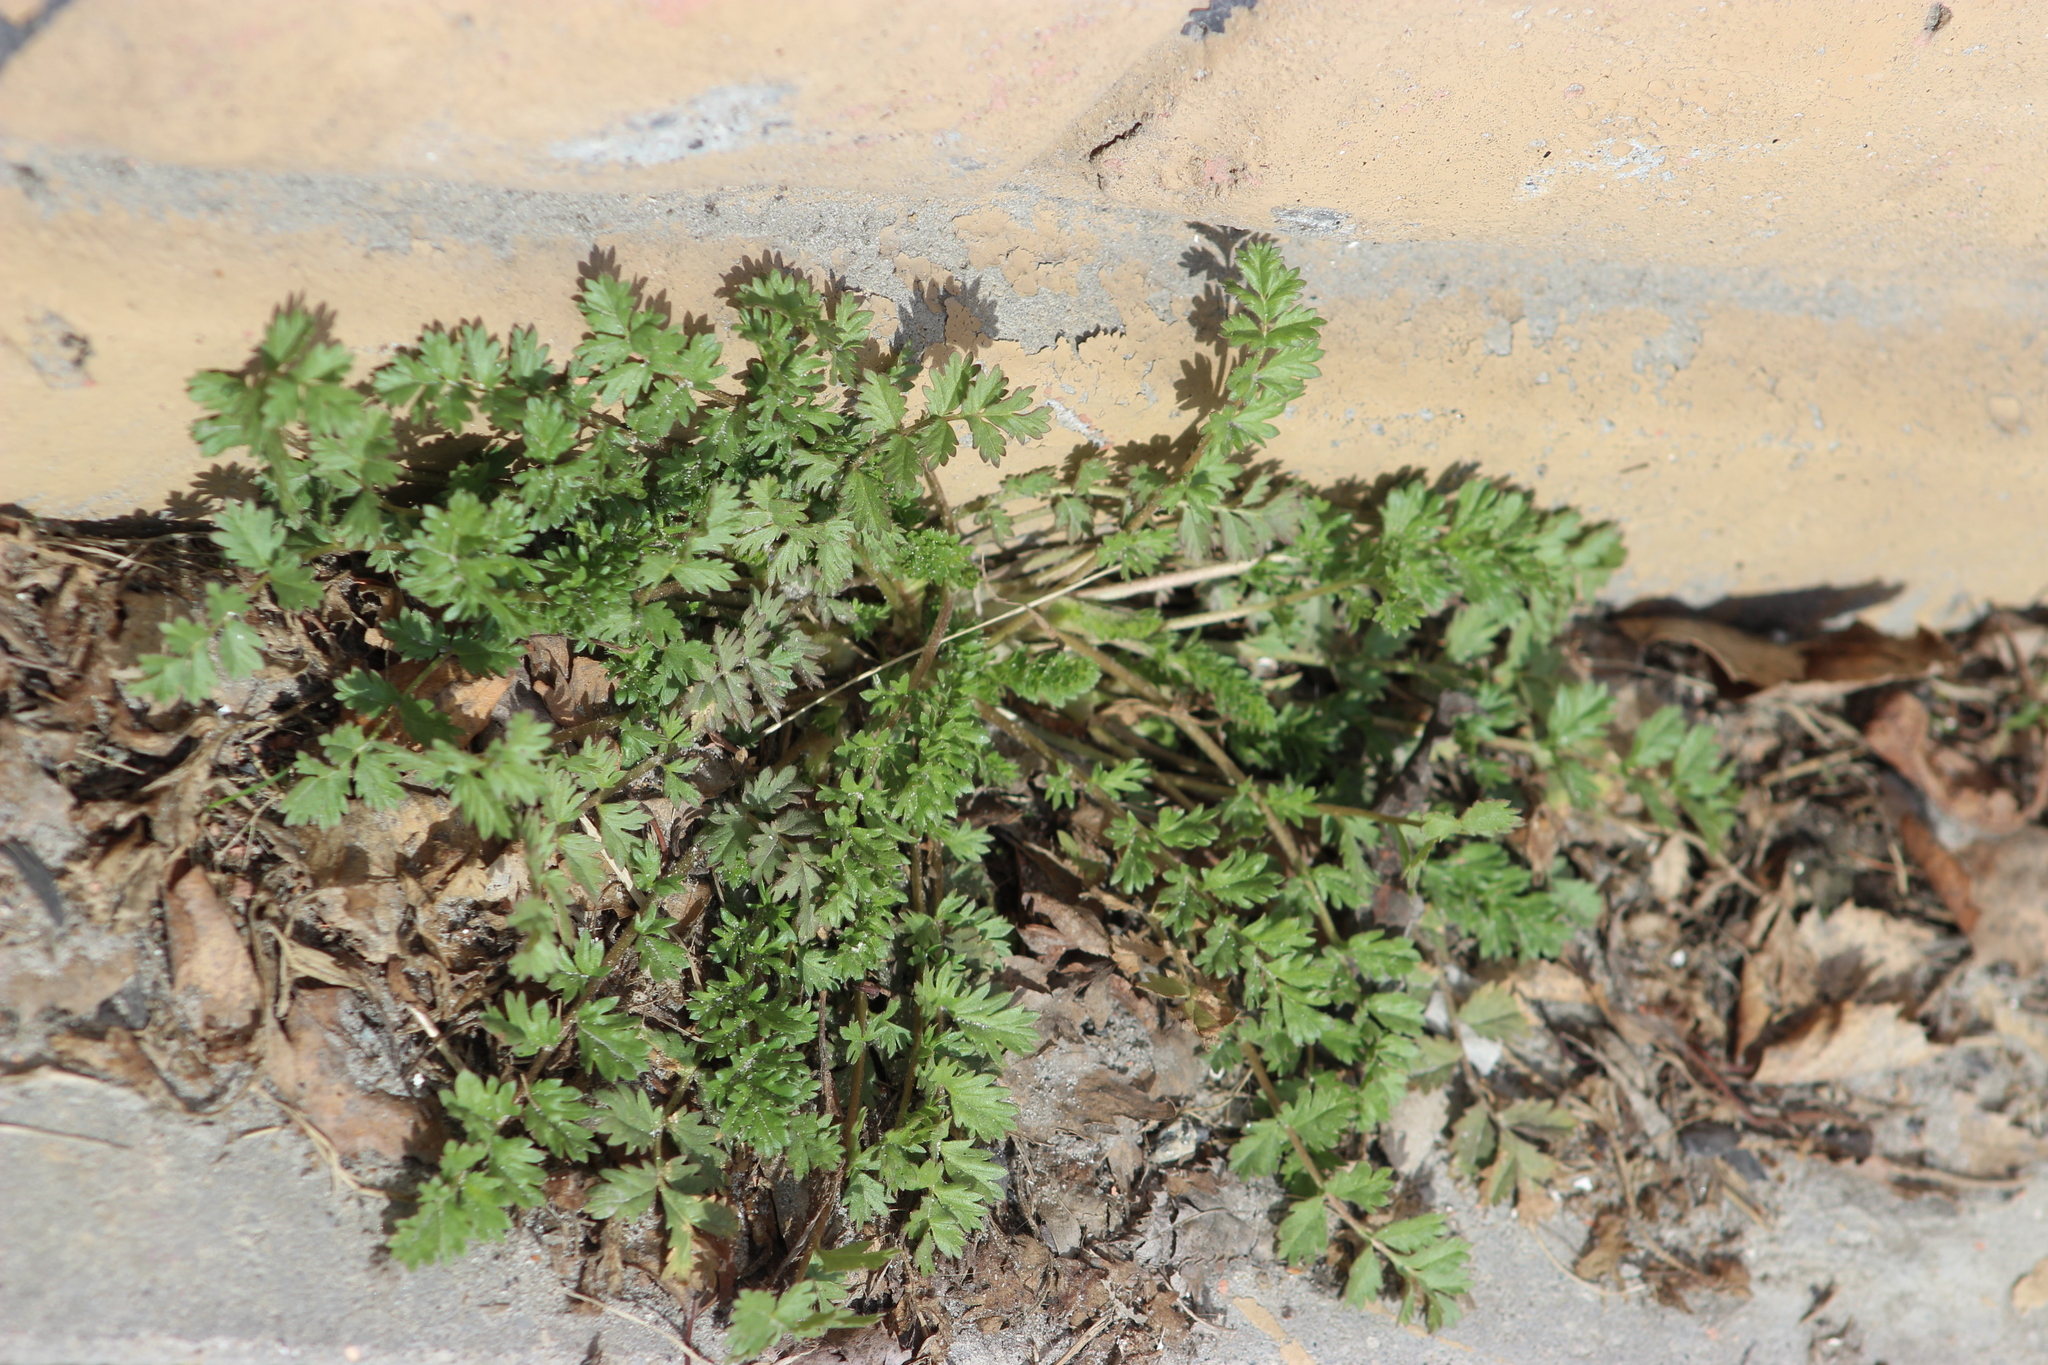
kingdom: Plantae
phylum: Tracheophyta
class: Magnoliopsida
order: Rosales
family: Rosaceae
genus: Potentilla
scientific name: Potentilla supina
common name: Prostrate cinquefoil
